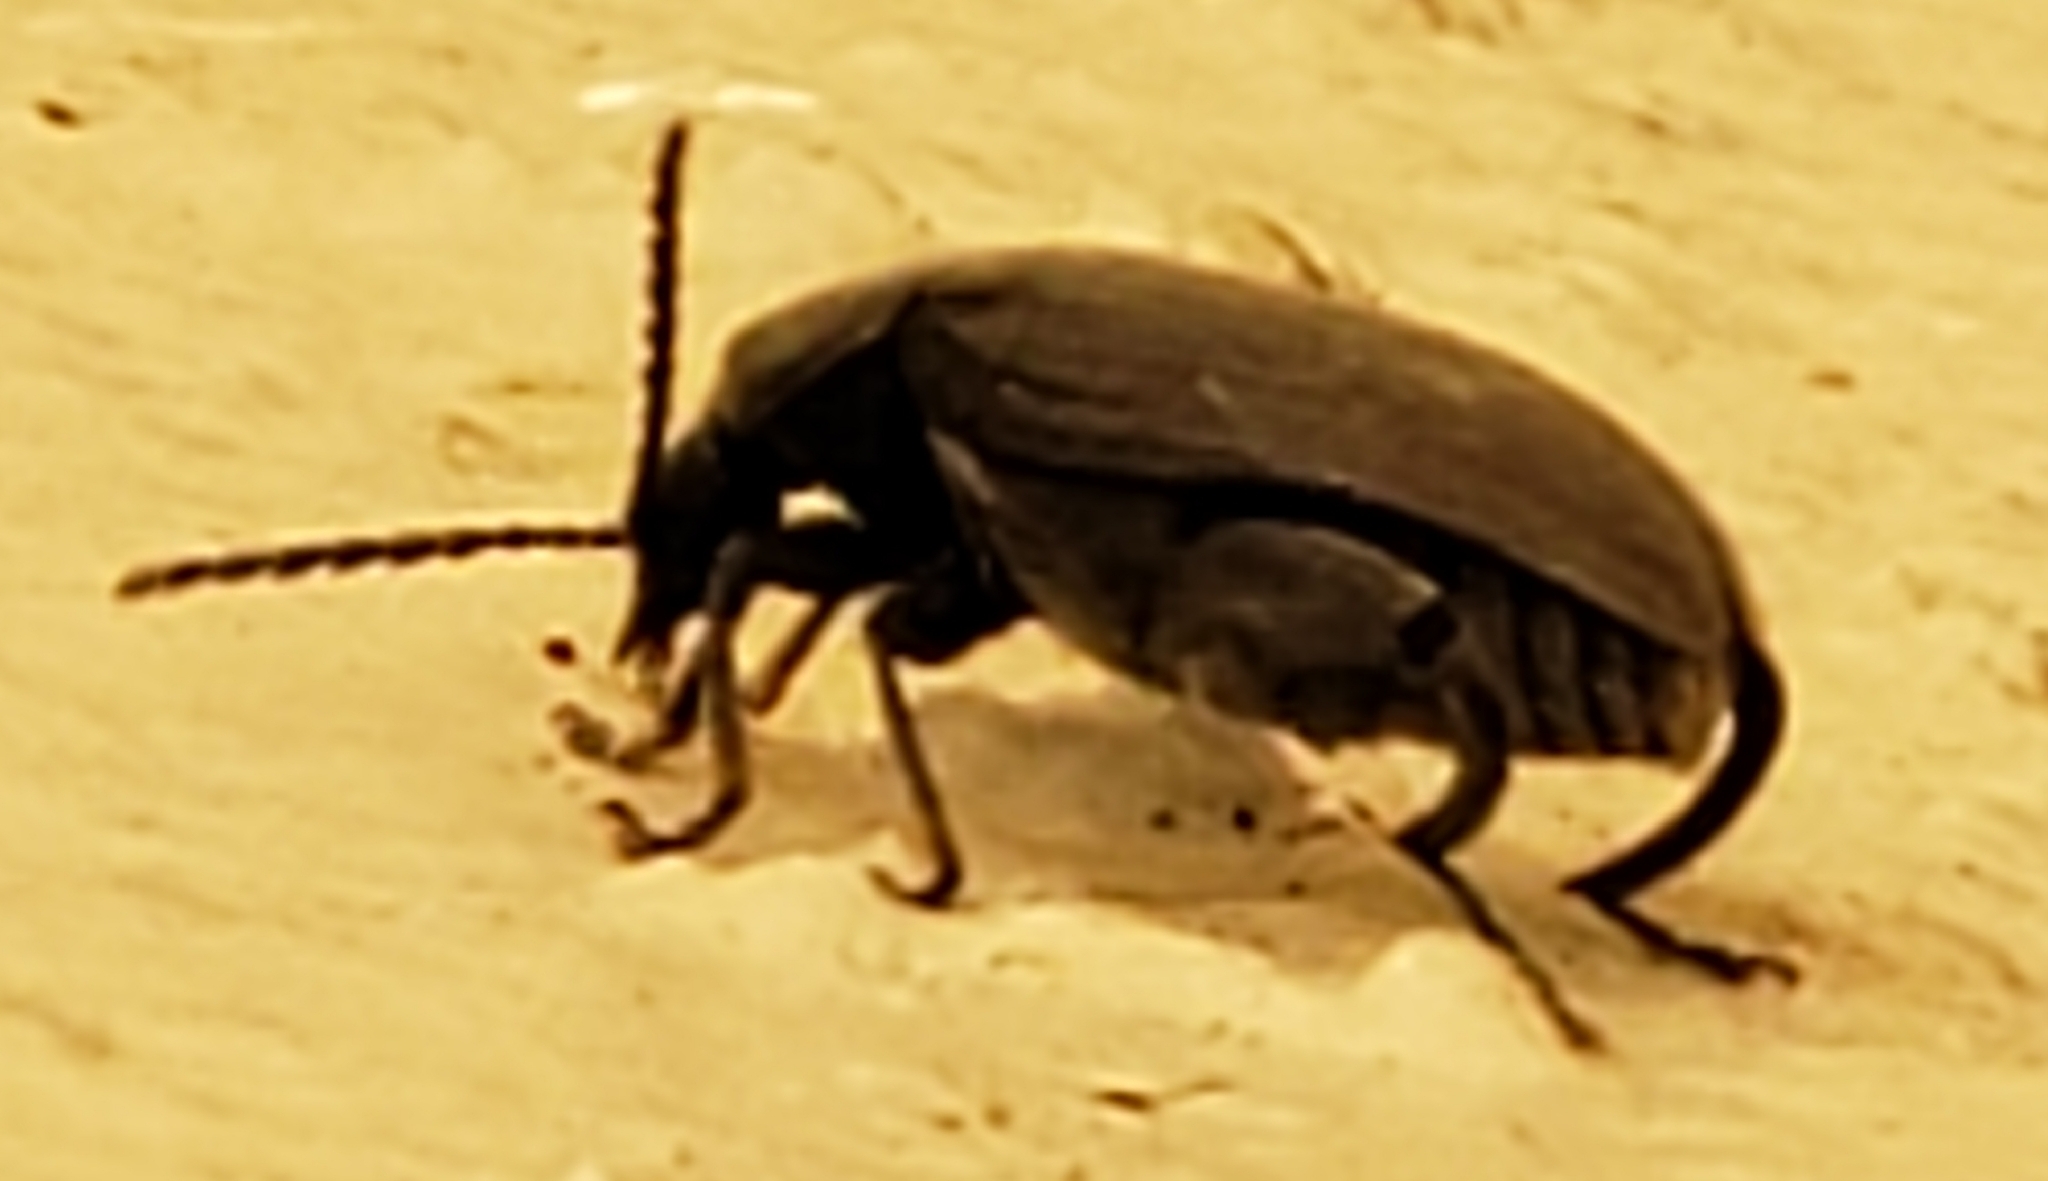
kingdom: Animalia
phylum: Arthropoda
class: Insecta
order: Coleoptera
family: Chrysomelidae
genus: Pachymerus
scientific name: Pachymerus
